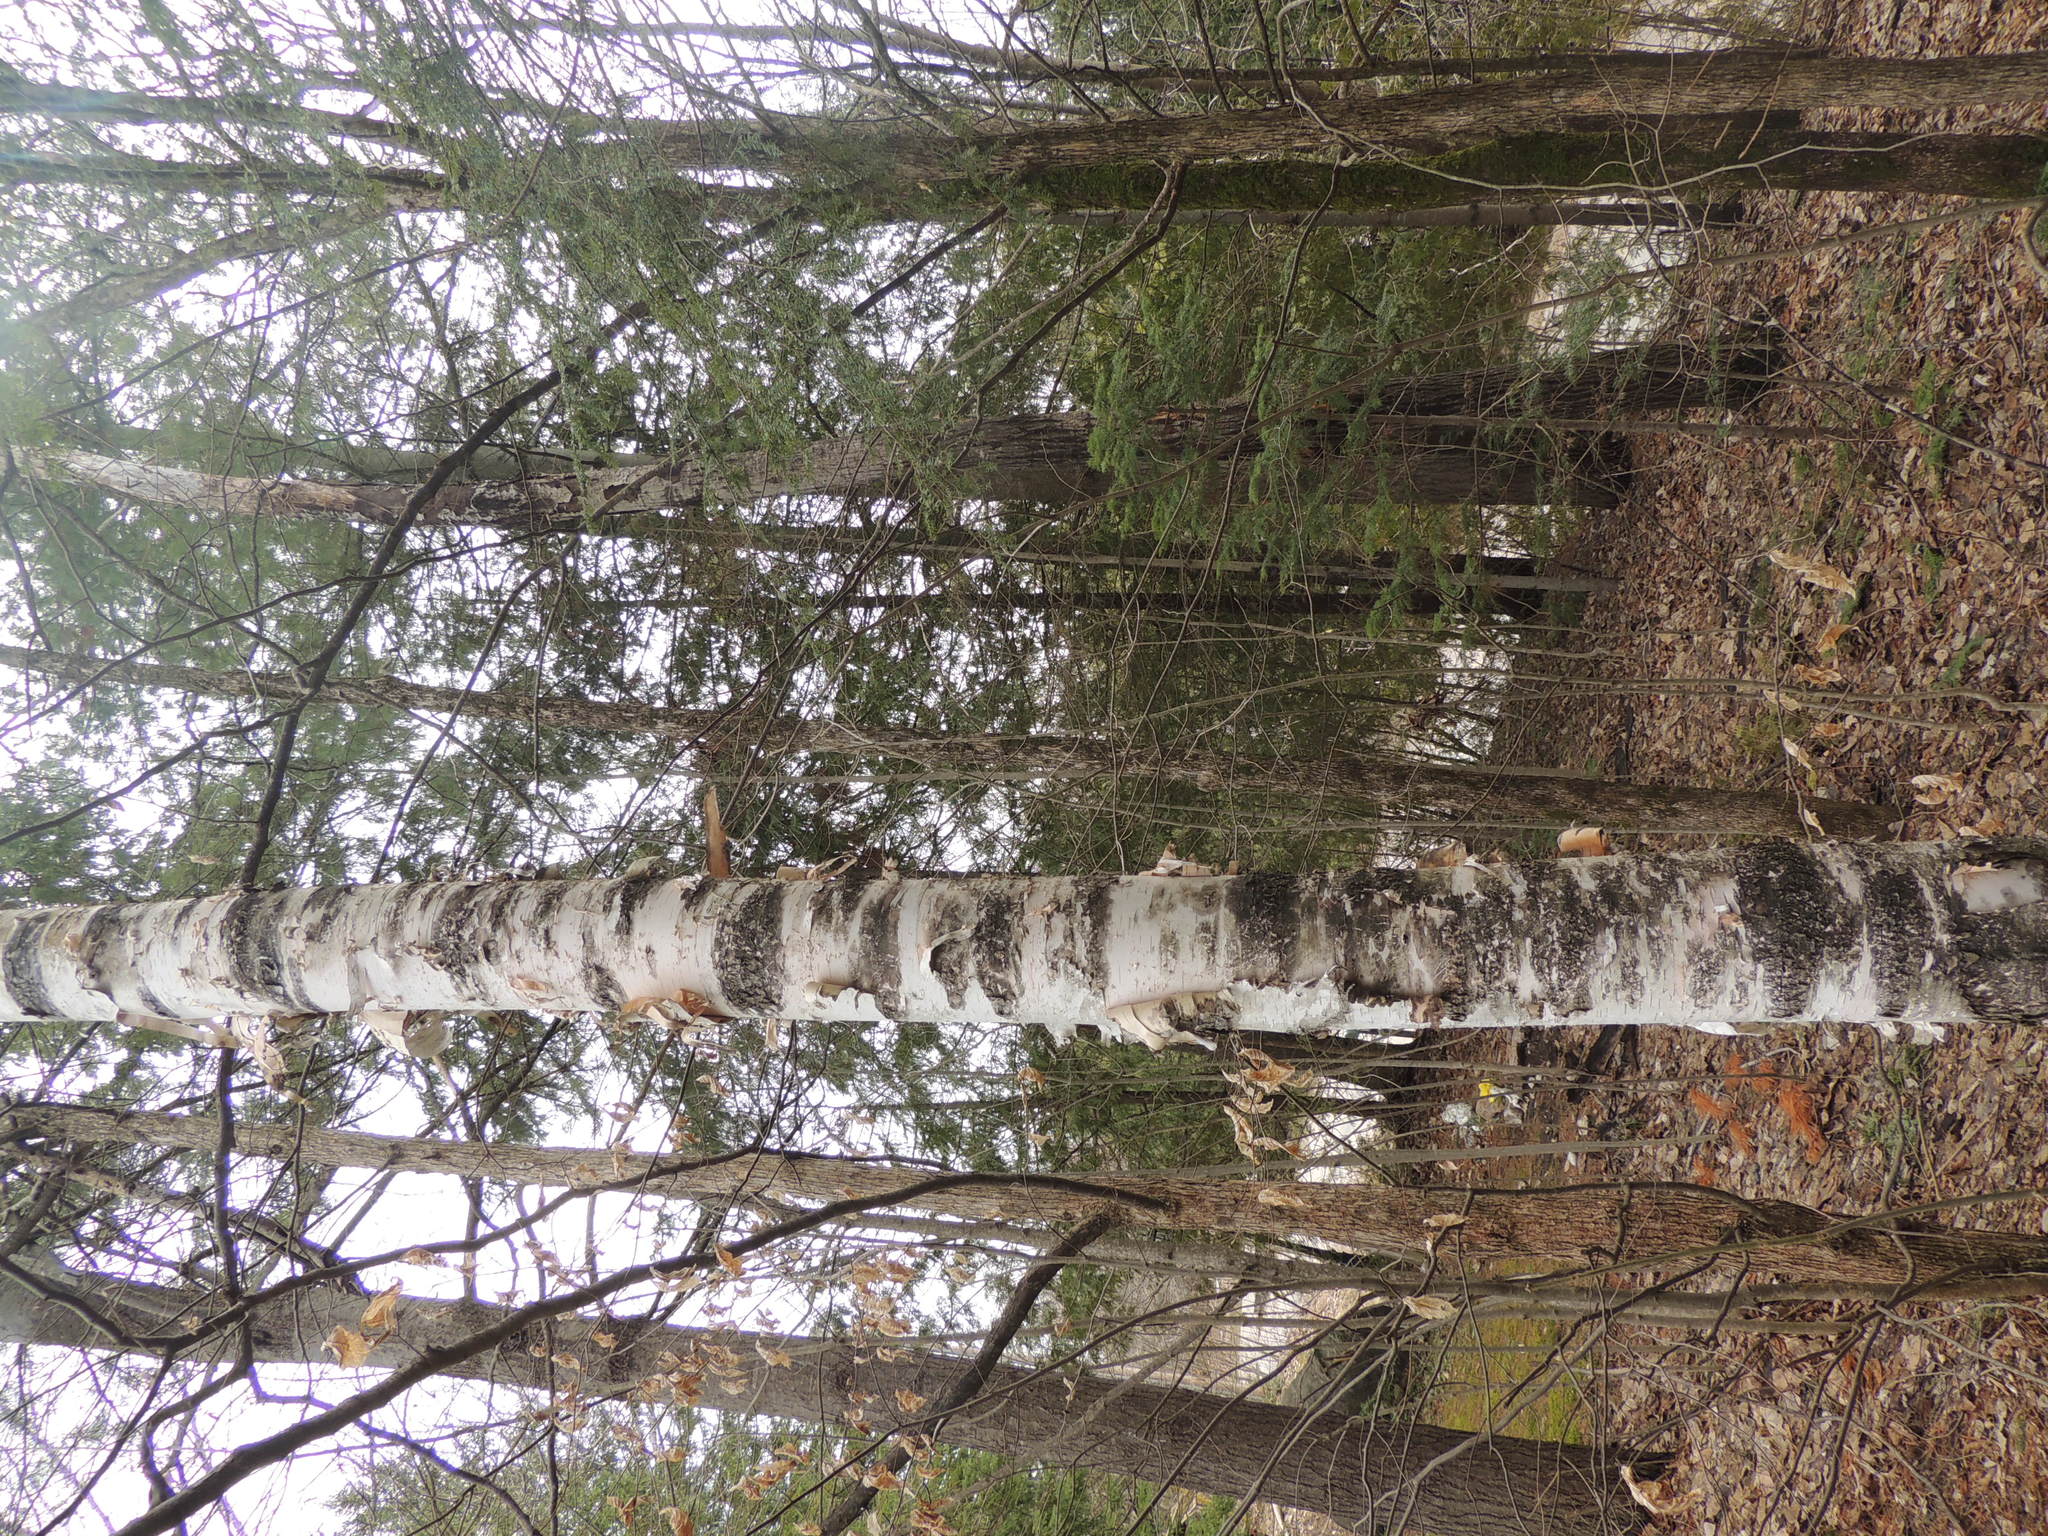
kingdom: Plantae
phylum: Tracheophyta
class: Magnoliopsida
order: Fagales
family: Betulaceae
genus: Betula
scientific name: Betula papyrifera
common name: Paper birch
